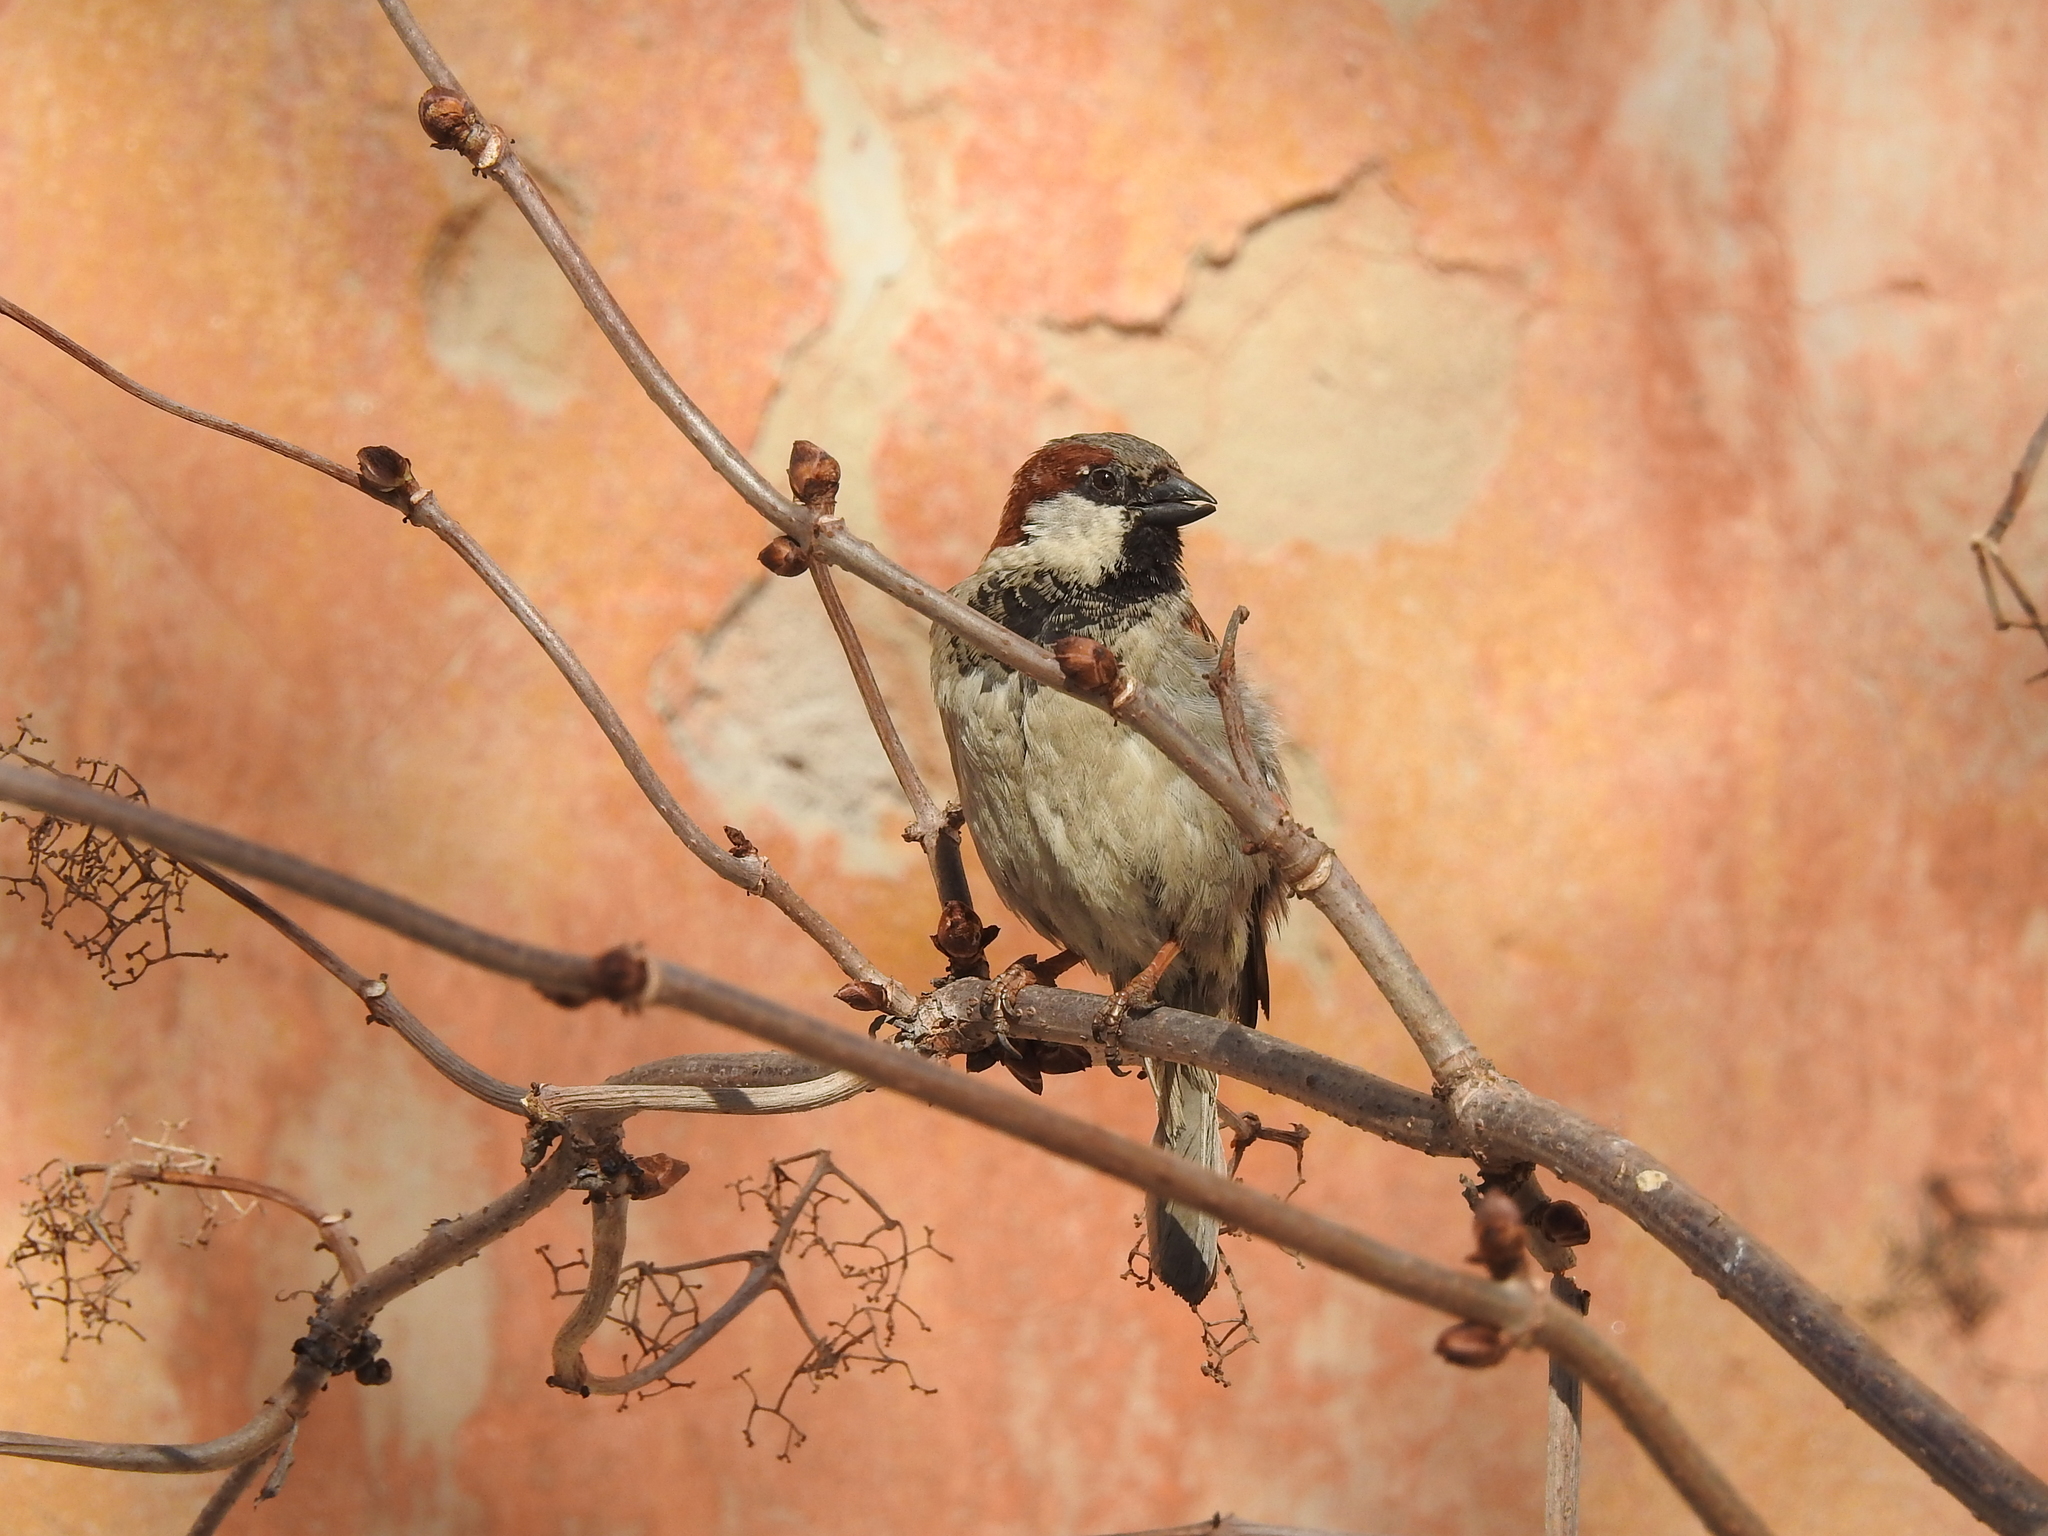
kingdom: Animalia
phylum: Chordata
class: Aves
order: Passeriformes
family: Passeridae
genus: Passer
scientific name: Passer domesticus
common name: House sparrow
